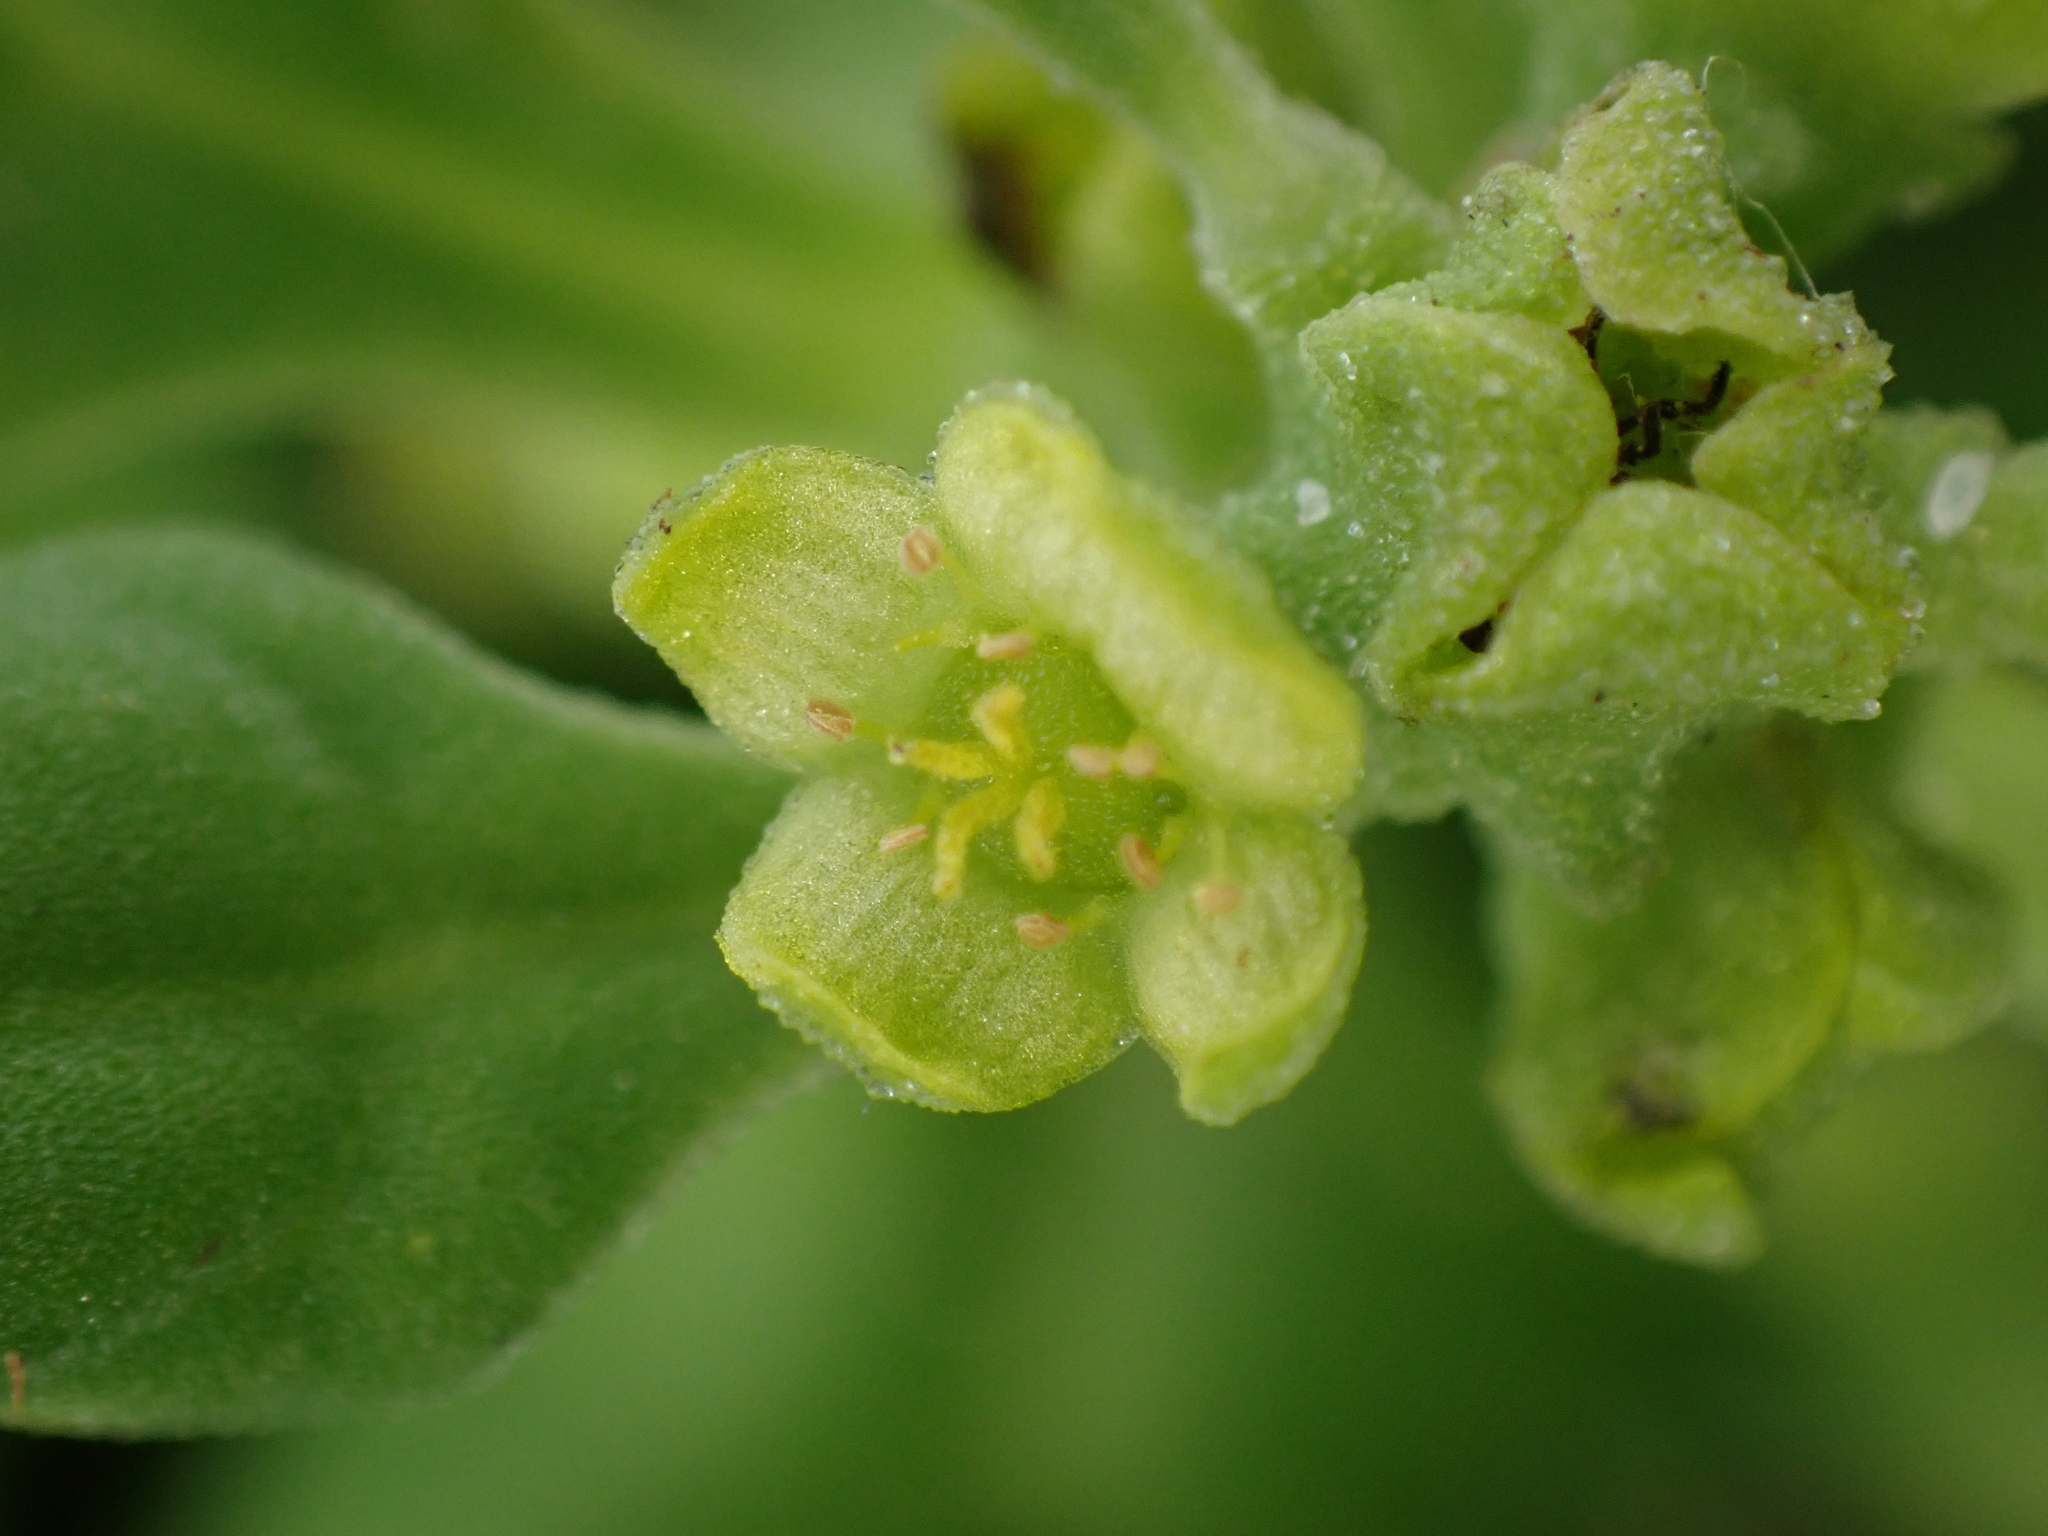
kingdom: Plantae
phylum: Tracheophyta
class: Magnoliopsida
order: Caryophyllales
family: Aizoaceae
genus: Tetragonia
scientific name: Tetragonia tetragonoides
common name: New zealand-spinach
